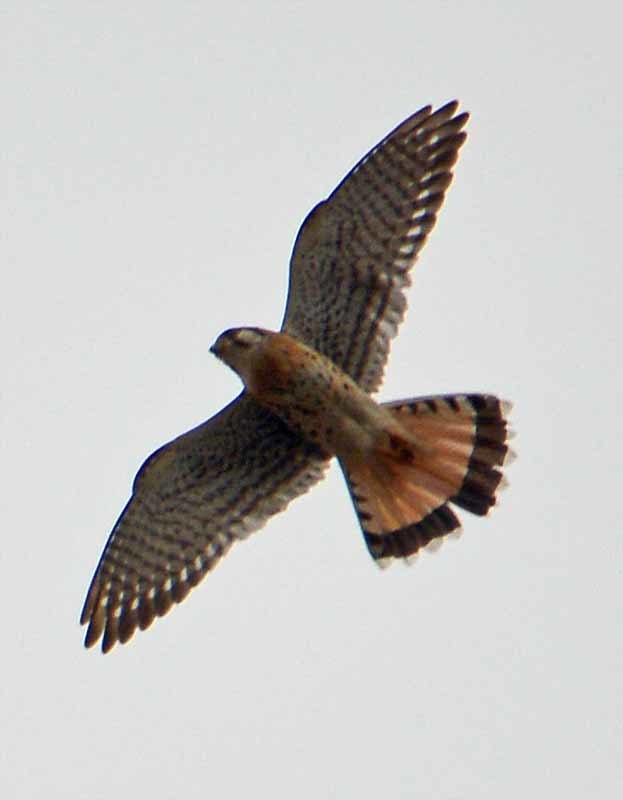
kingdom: Animalia
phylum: Chordata
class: Aves
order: Falconiformes
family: Falconidae
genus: Falco
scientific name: Falco sparverius
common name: American kestrel
